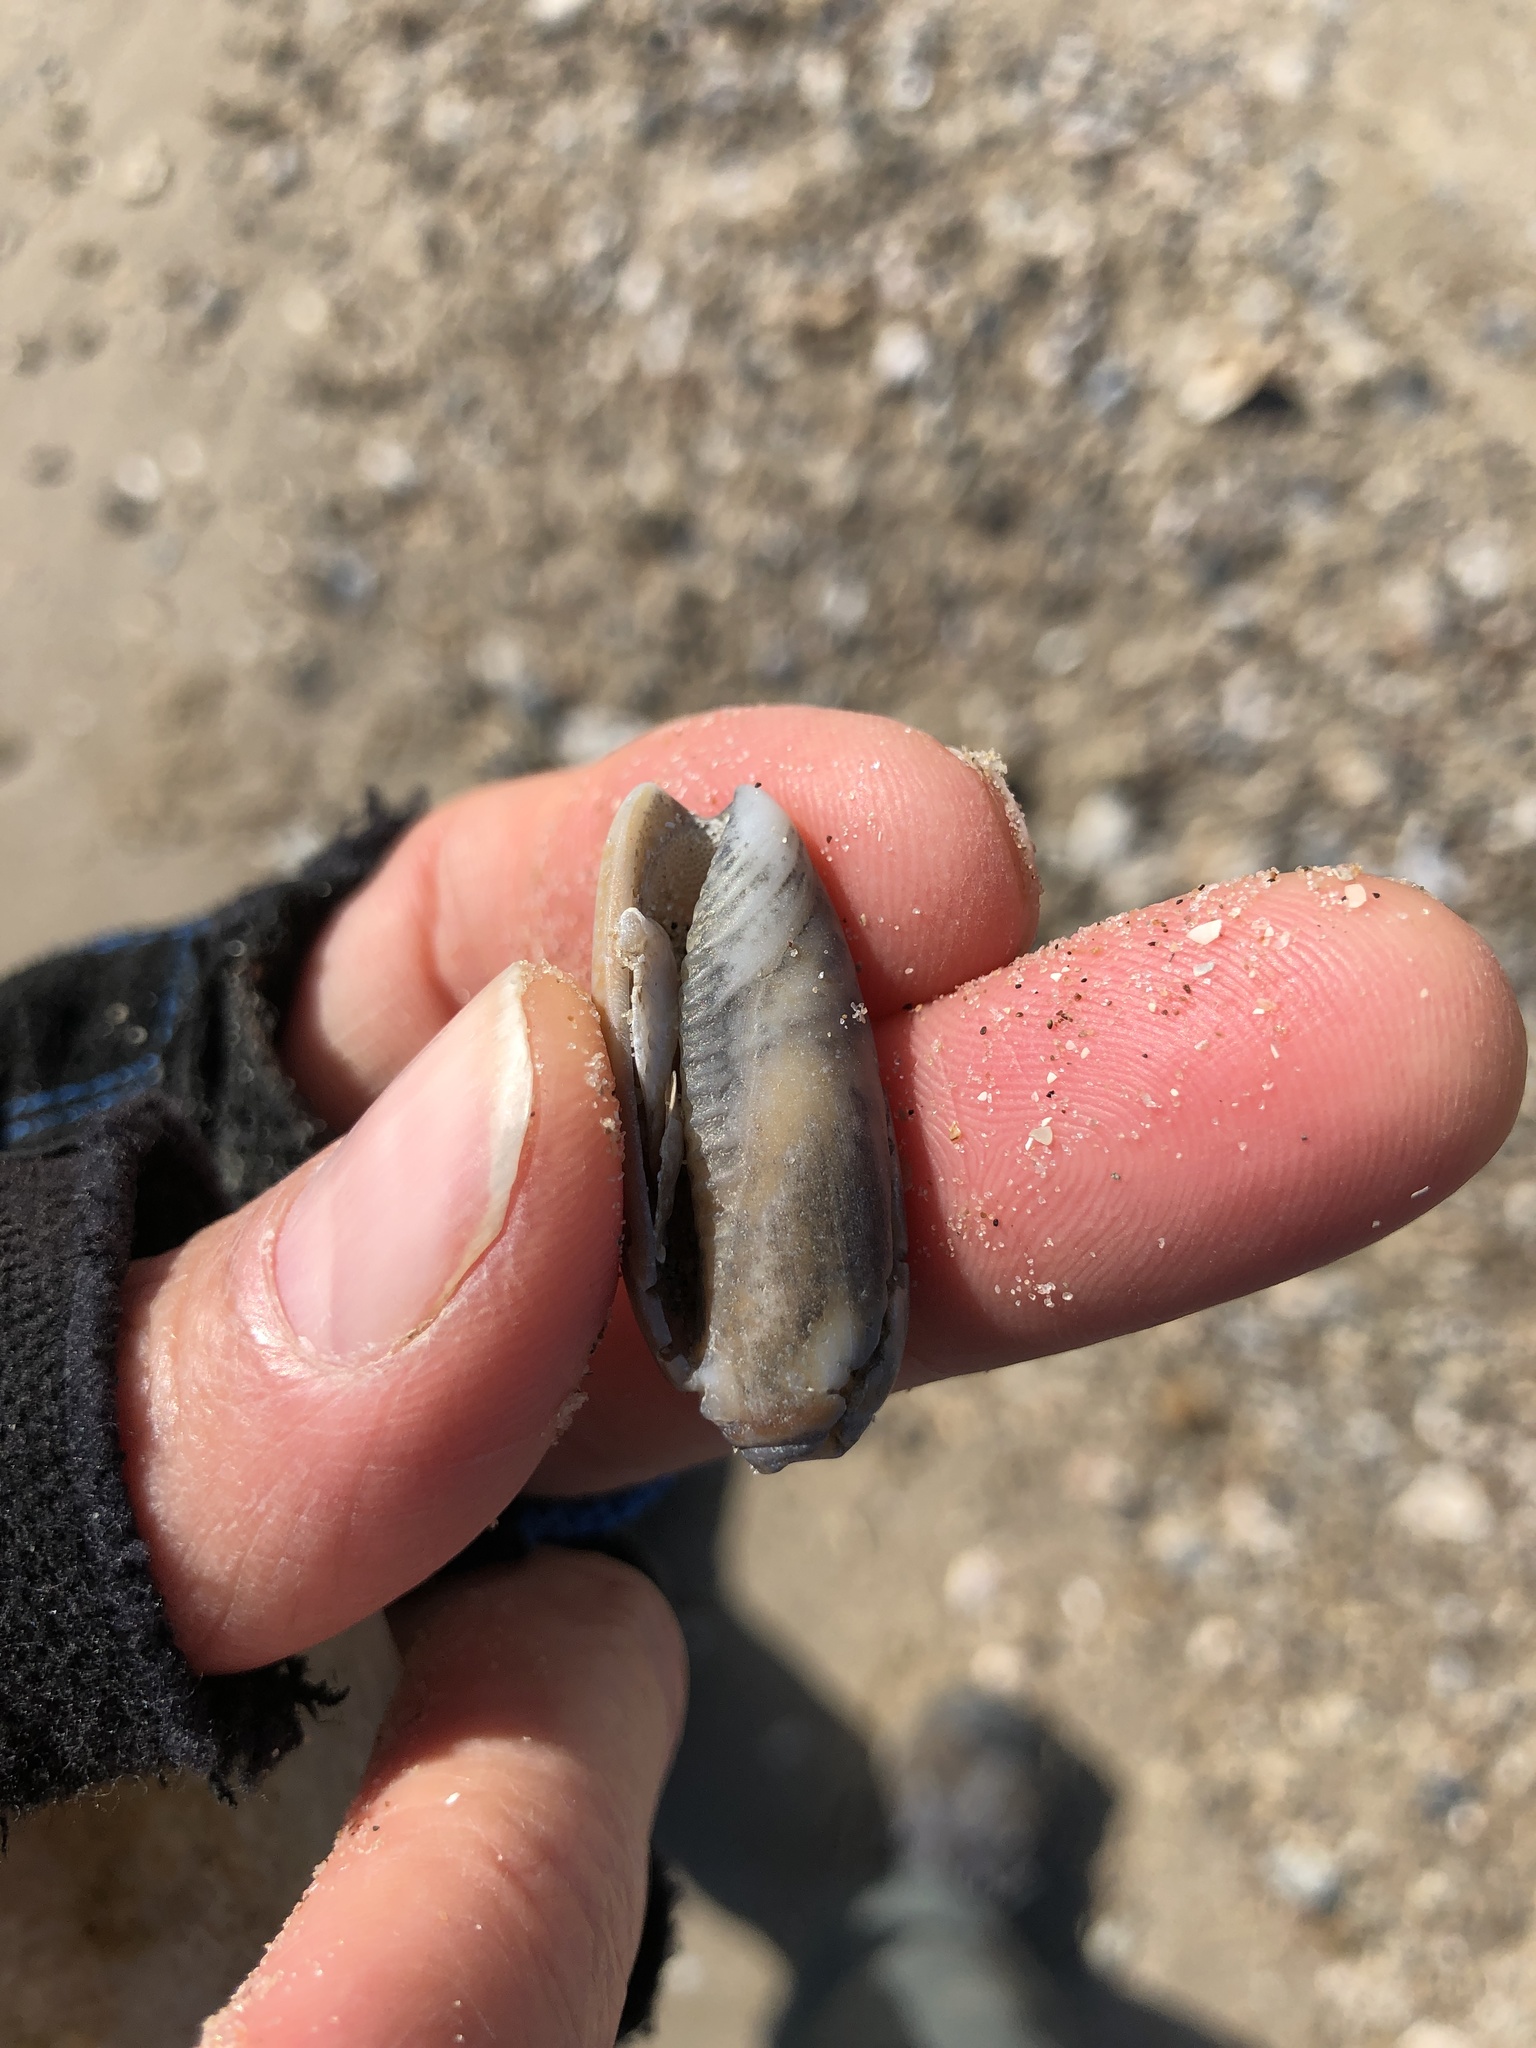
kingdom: Animalia
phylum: Mollusca
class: Gastropoda
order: Neogastropoda
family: Olividae
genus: Oliva
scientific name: Oliva sayana
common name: Lettered olive
